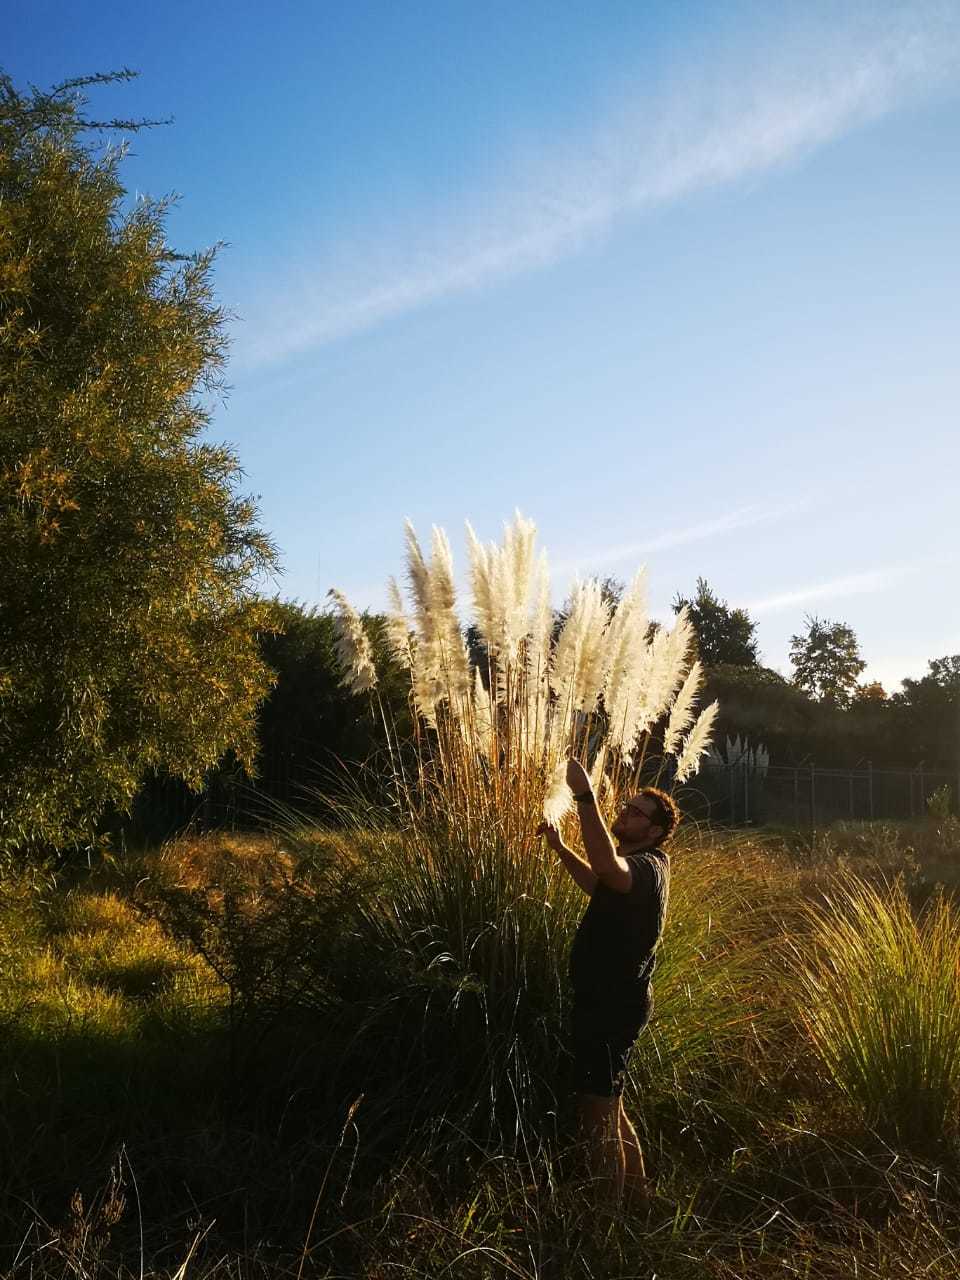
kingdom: Plantae
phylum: Tracheophyta
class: Liliopsida
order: Poales
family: Poaceae
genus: Cortaderia
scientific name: Cortaderia selloana
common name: Uruguayan pampas grass
